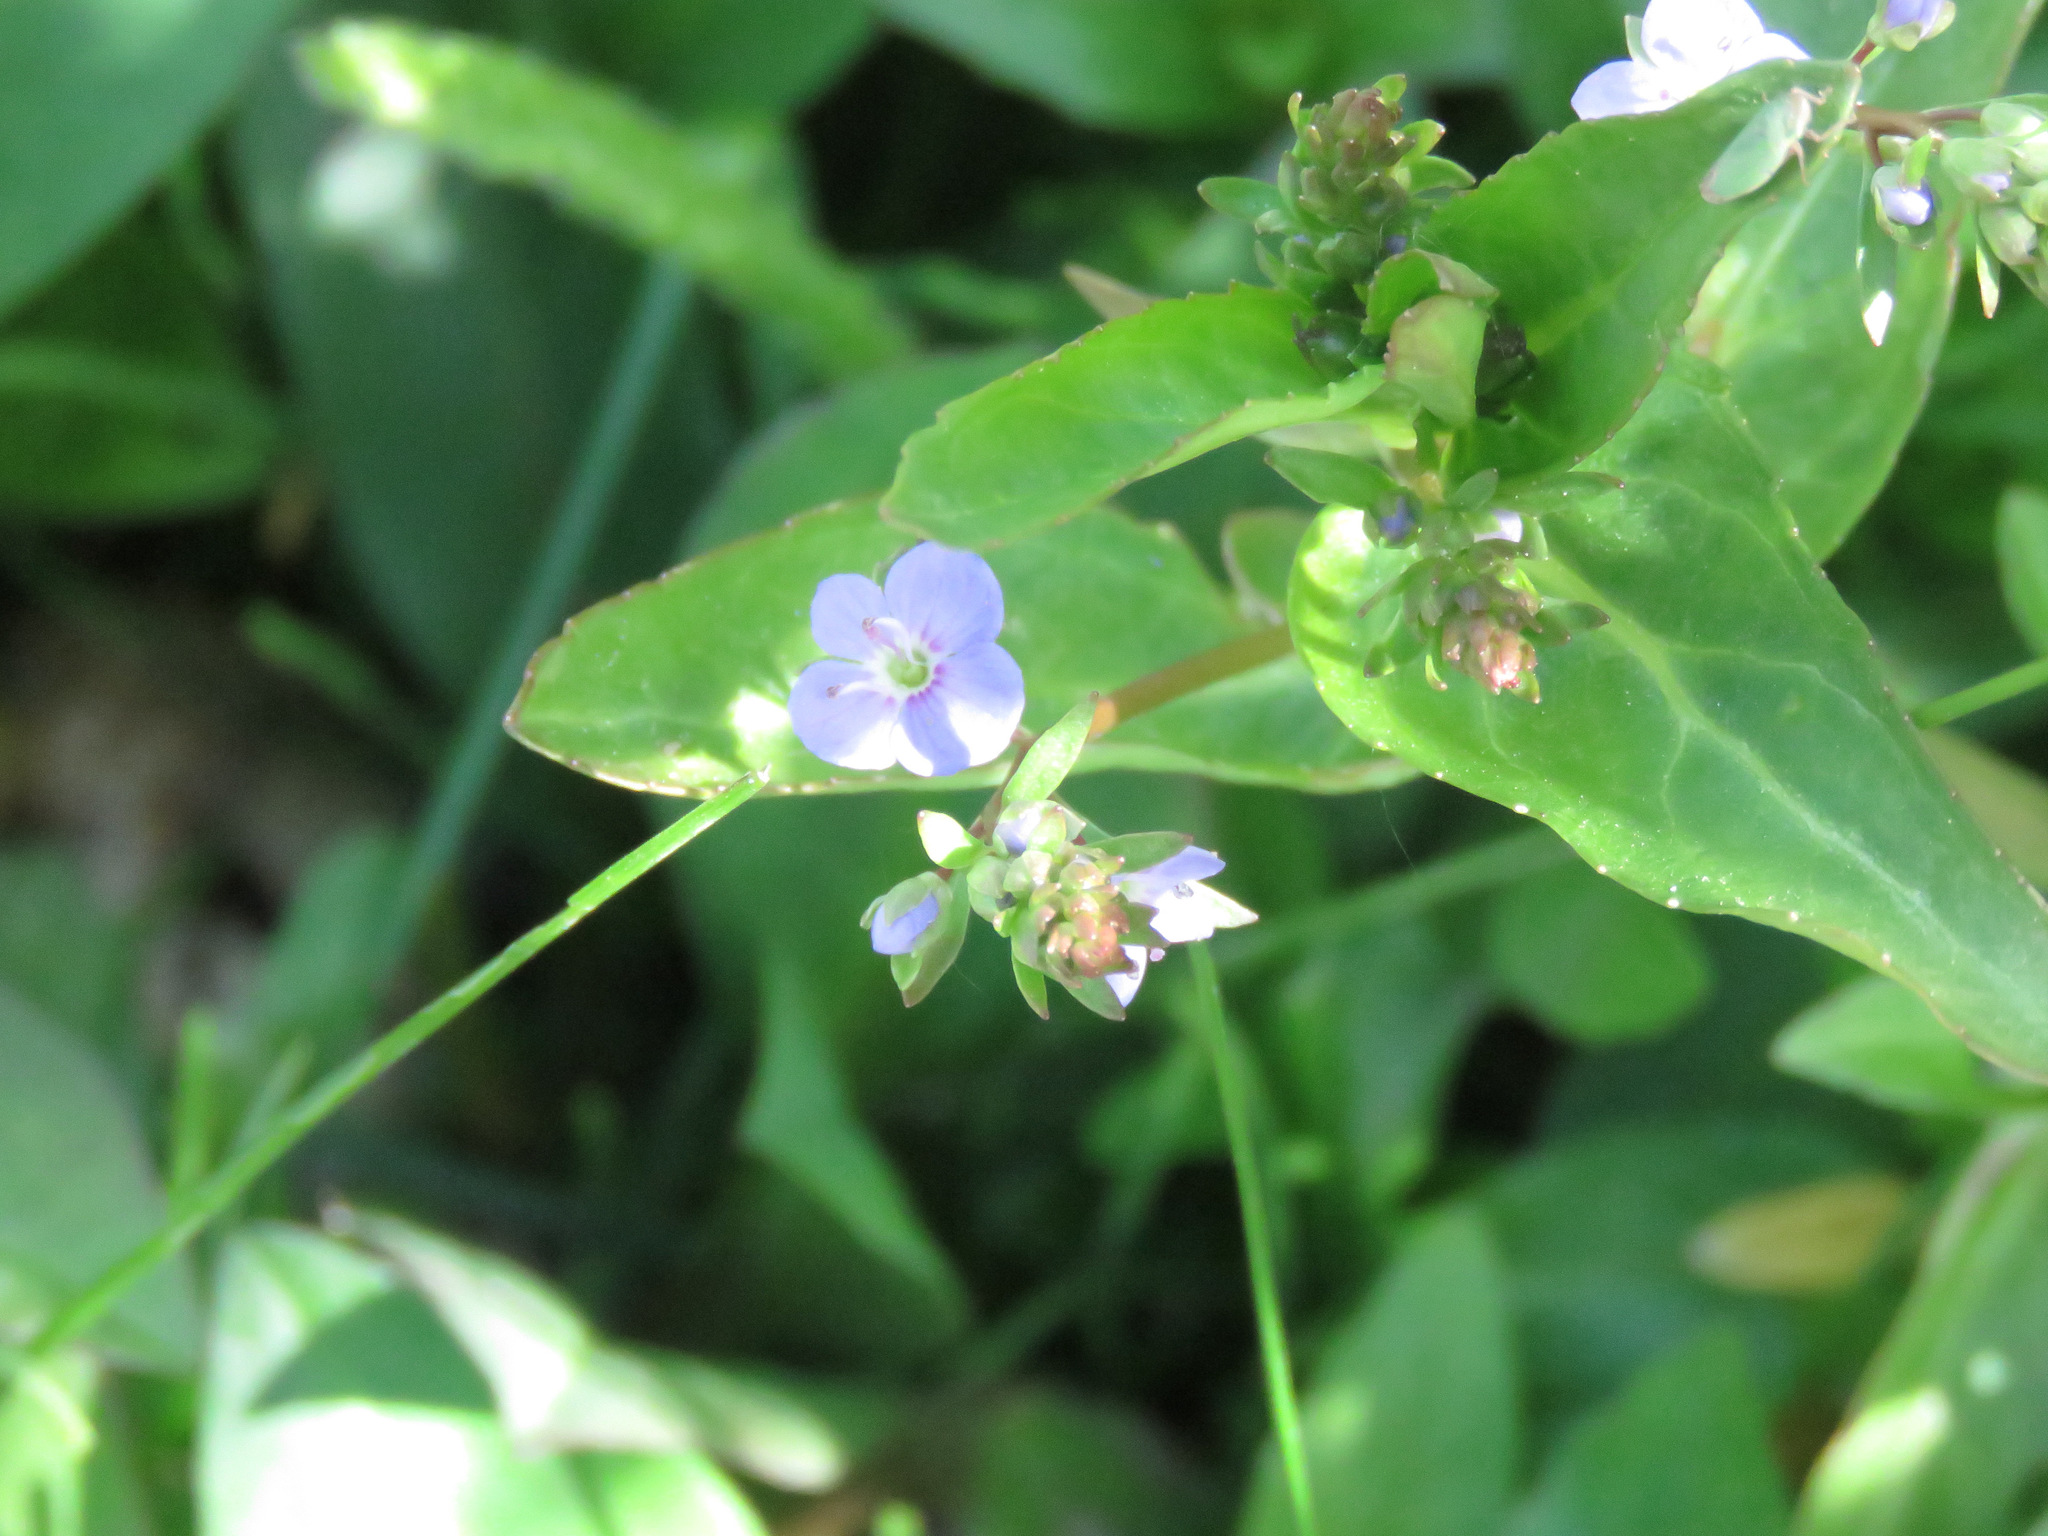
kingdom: Plantae
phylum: Tracheophyta
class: Magnoliopsida
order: Lamiales
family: Plantaginaceae
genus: Veronica
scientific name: Veronica americana
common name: American brooklime
